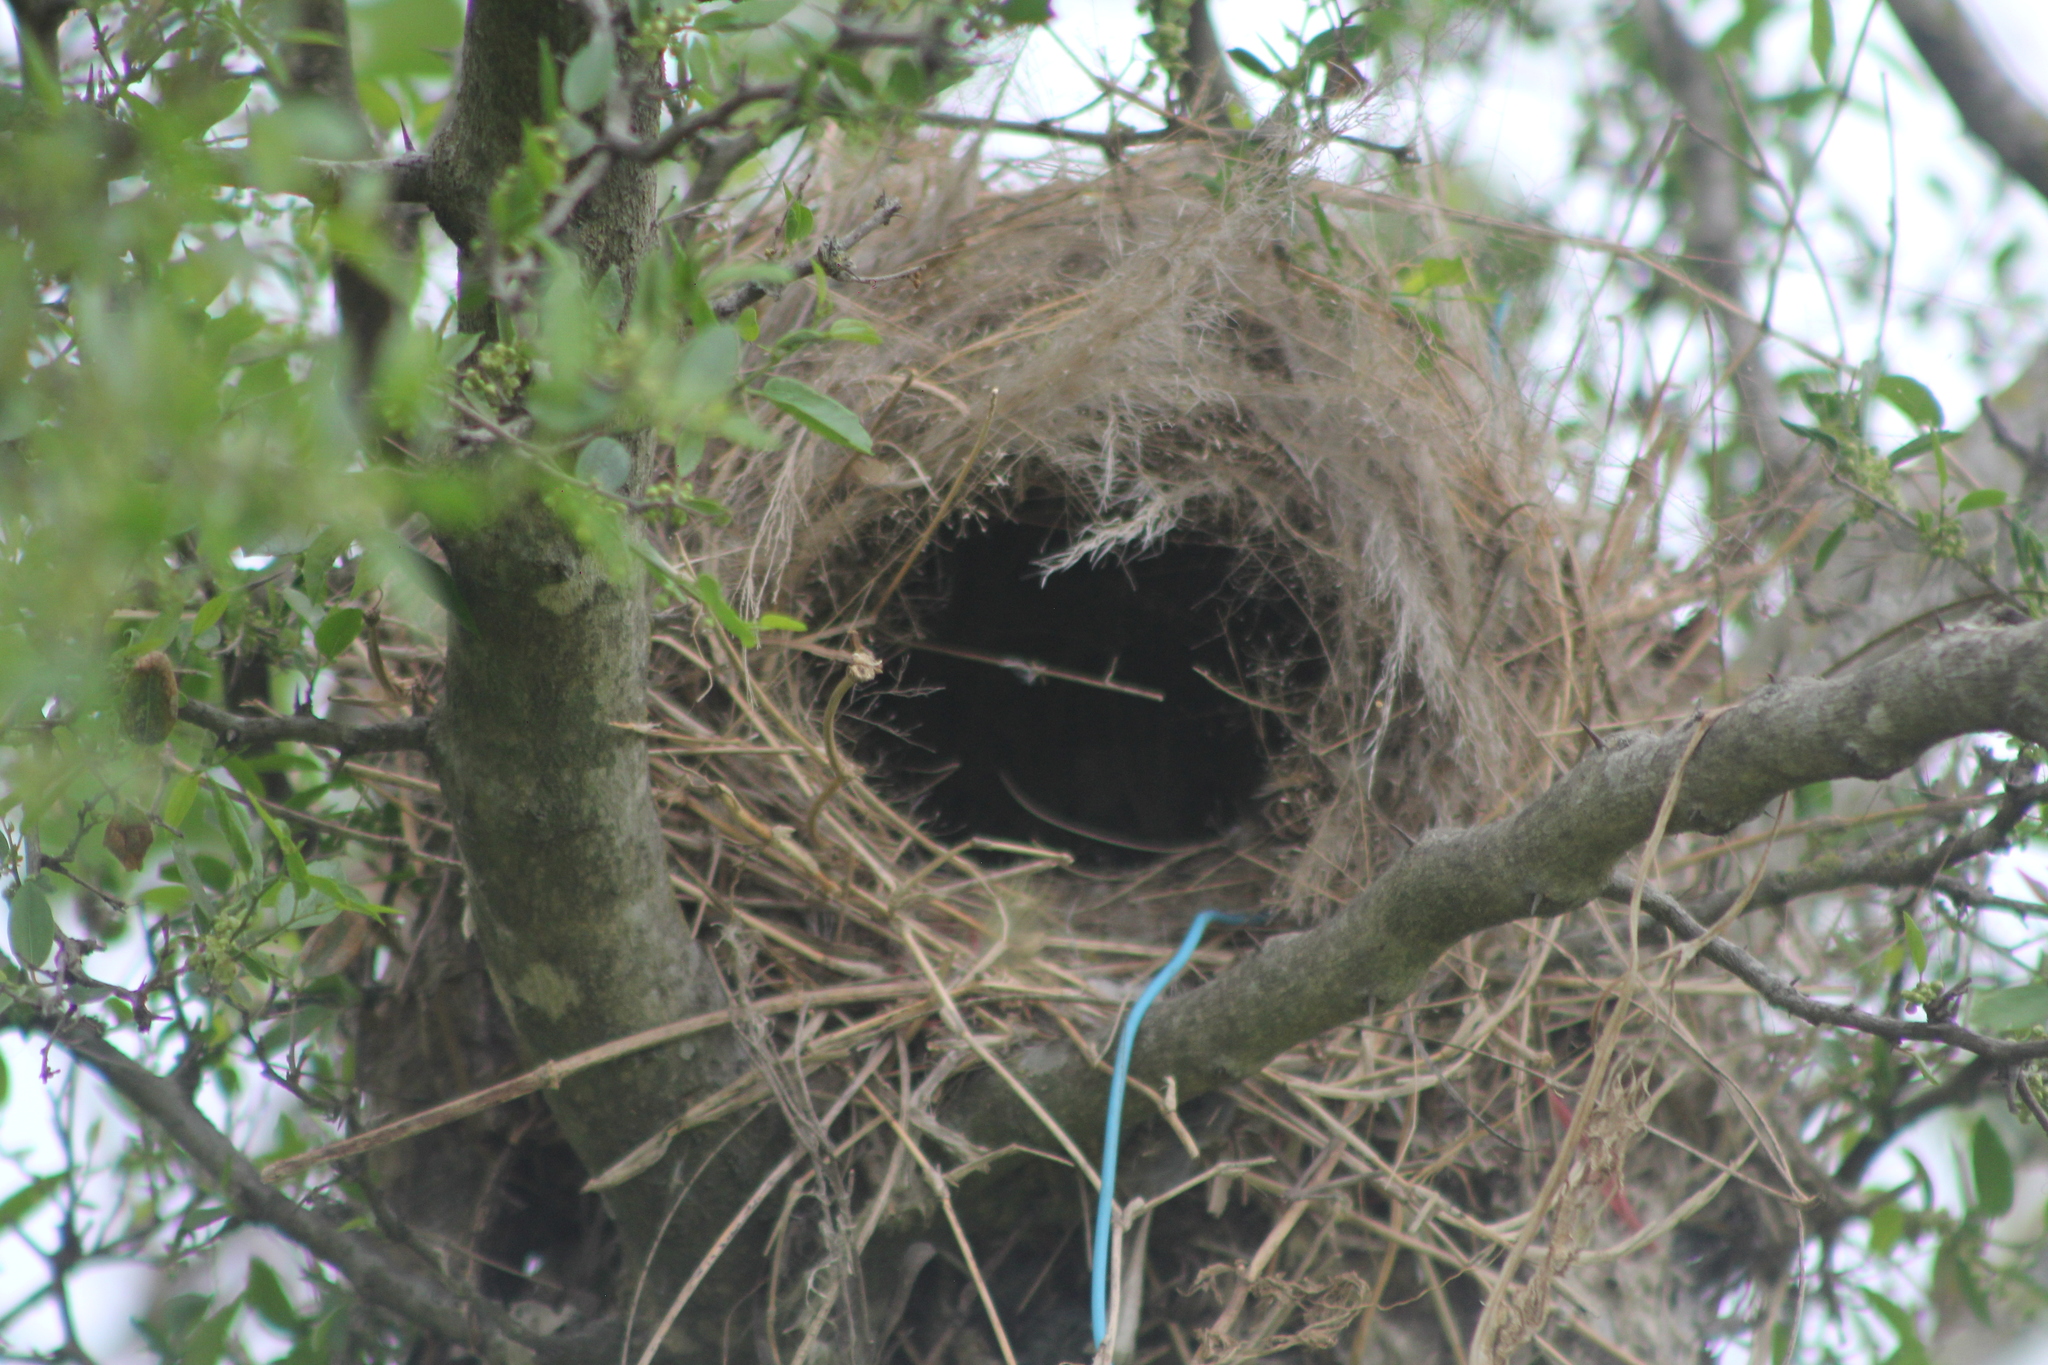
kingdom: Animalia
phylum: Chordata
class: Aves
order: Passeriformes
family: Tyrannidae
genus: Pitangus
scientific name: Pitangus sulphuratus
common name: Great kiskadee
